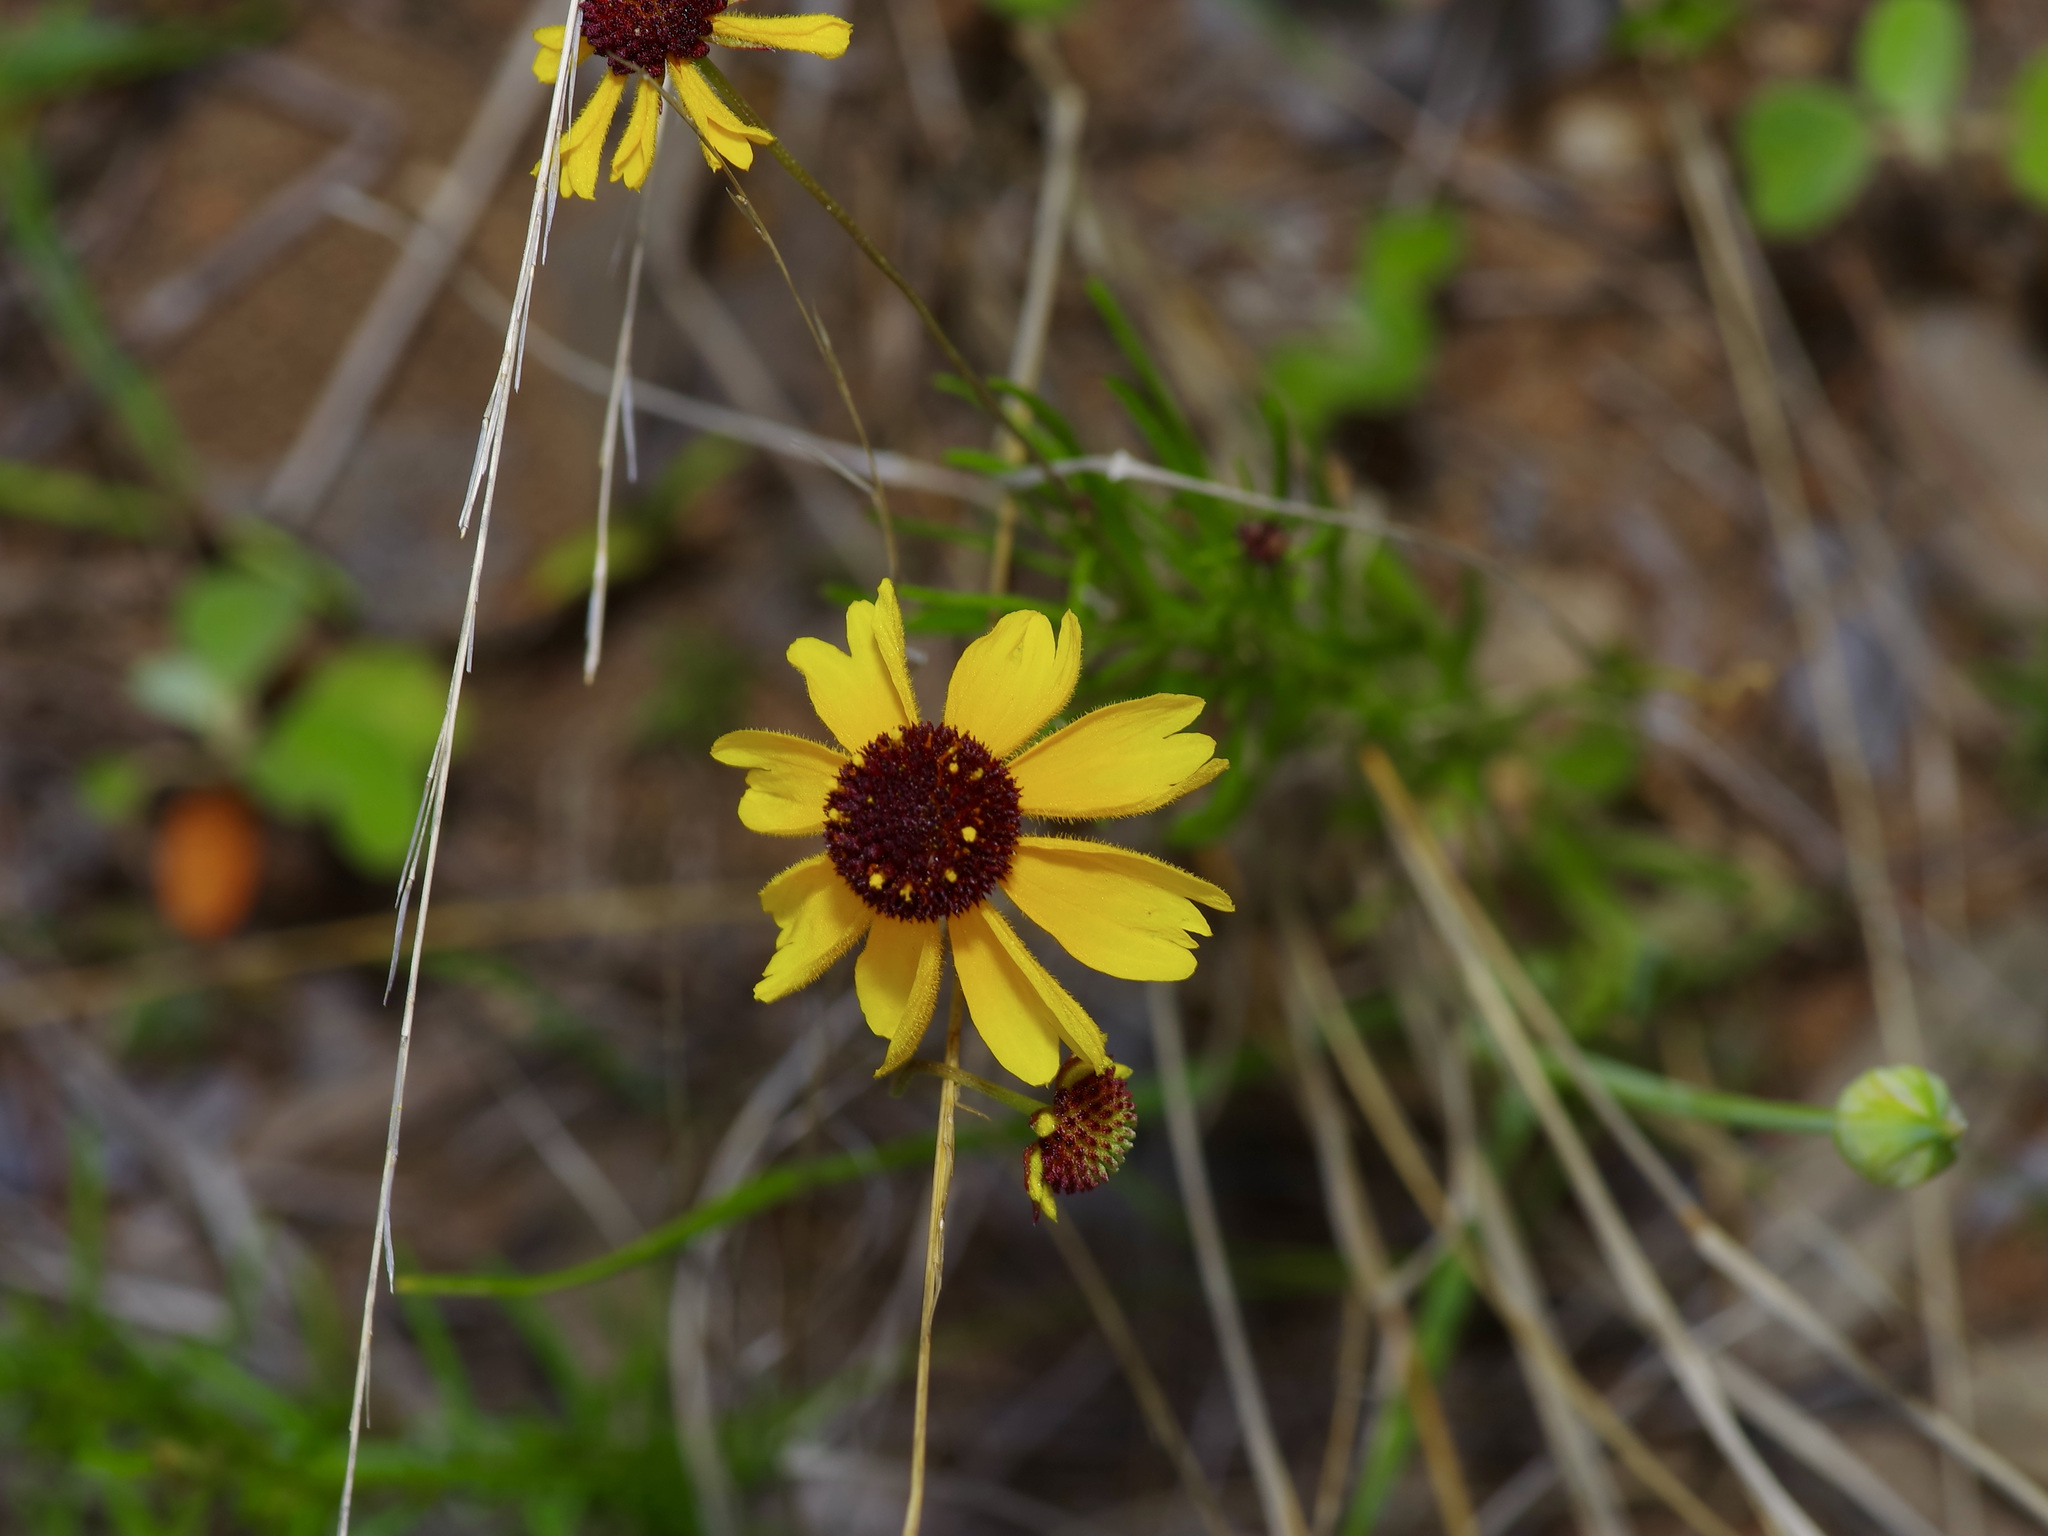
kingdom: Plantae
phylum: Tracheophyta
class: Magnoliopsida
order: Asterales
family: Asteraceae
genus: Helenium
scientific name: Helenium amarum
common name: Bitter sneezeweed
